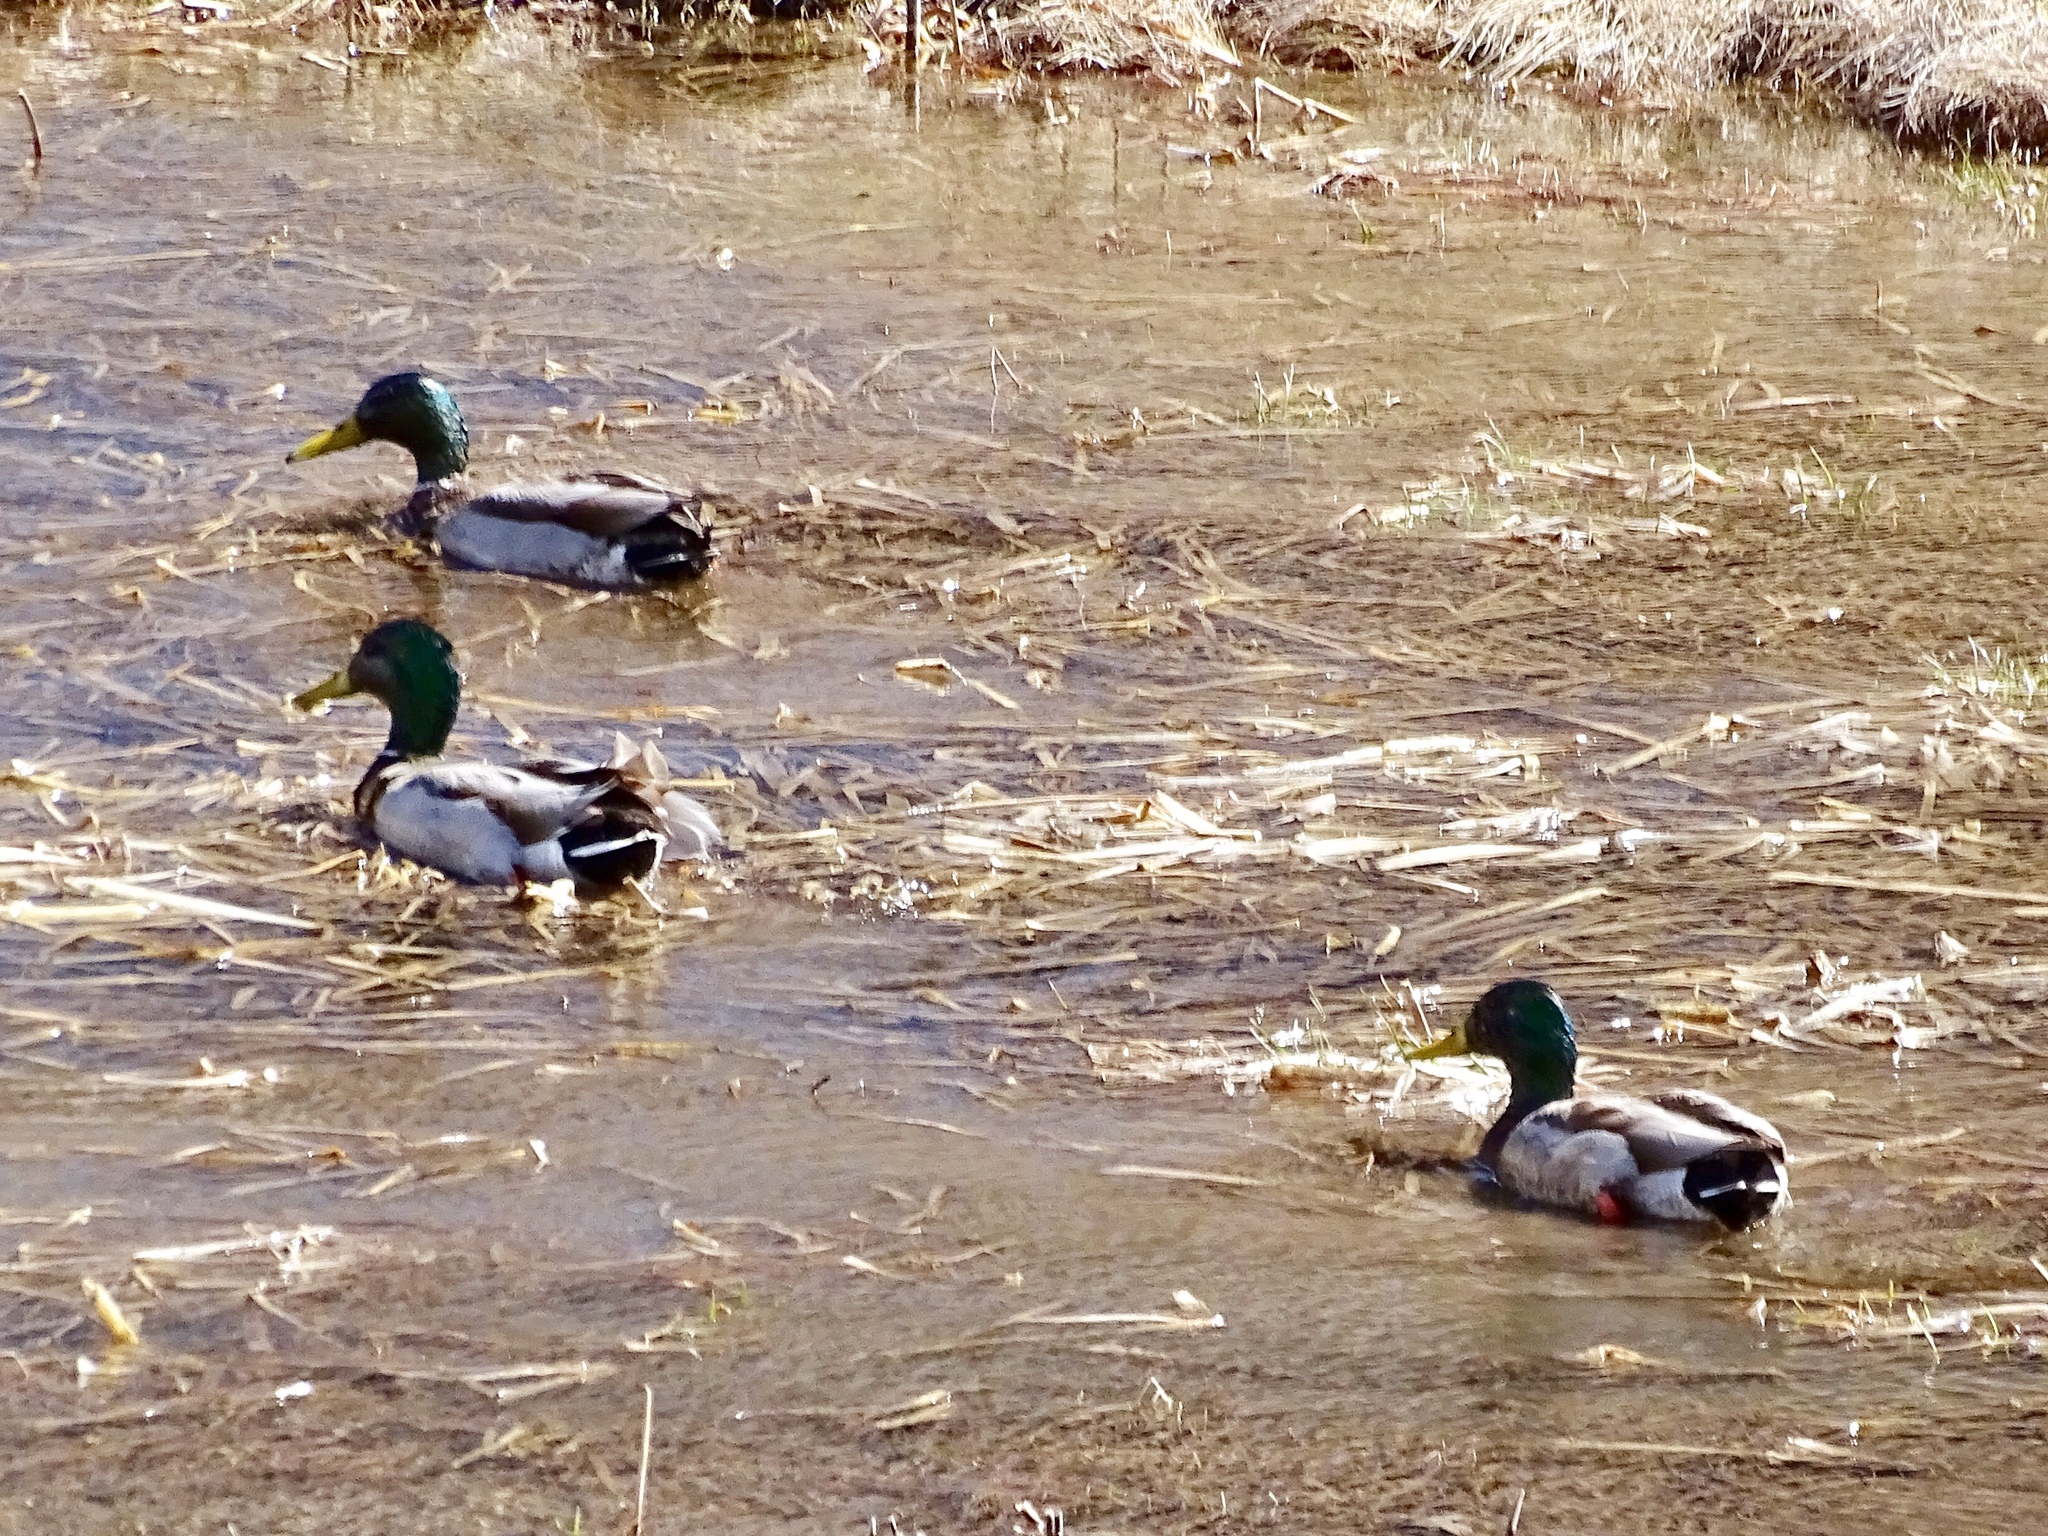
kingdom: Animalia
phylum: Chordata
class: Aves
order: Anseriformes
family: Anatidae
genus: Anas
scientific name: Anas platyrhynchos
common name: Mallard
